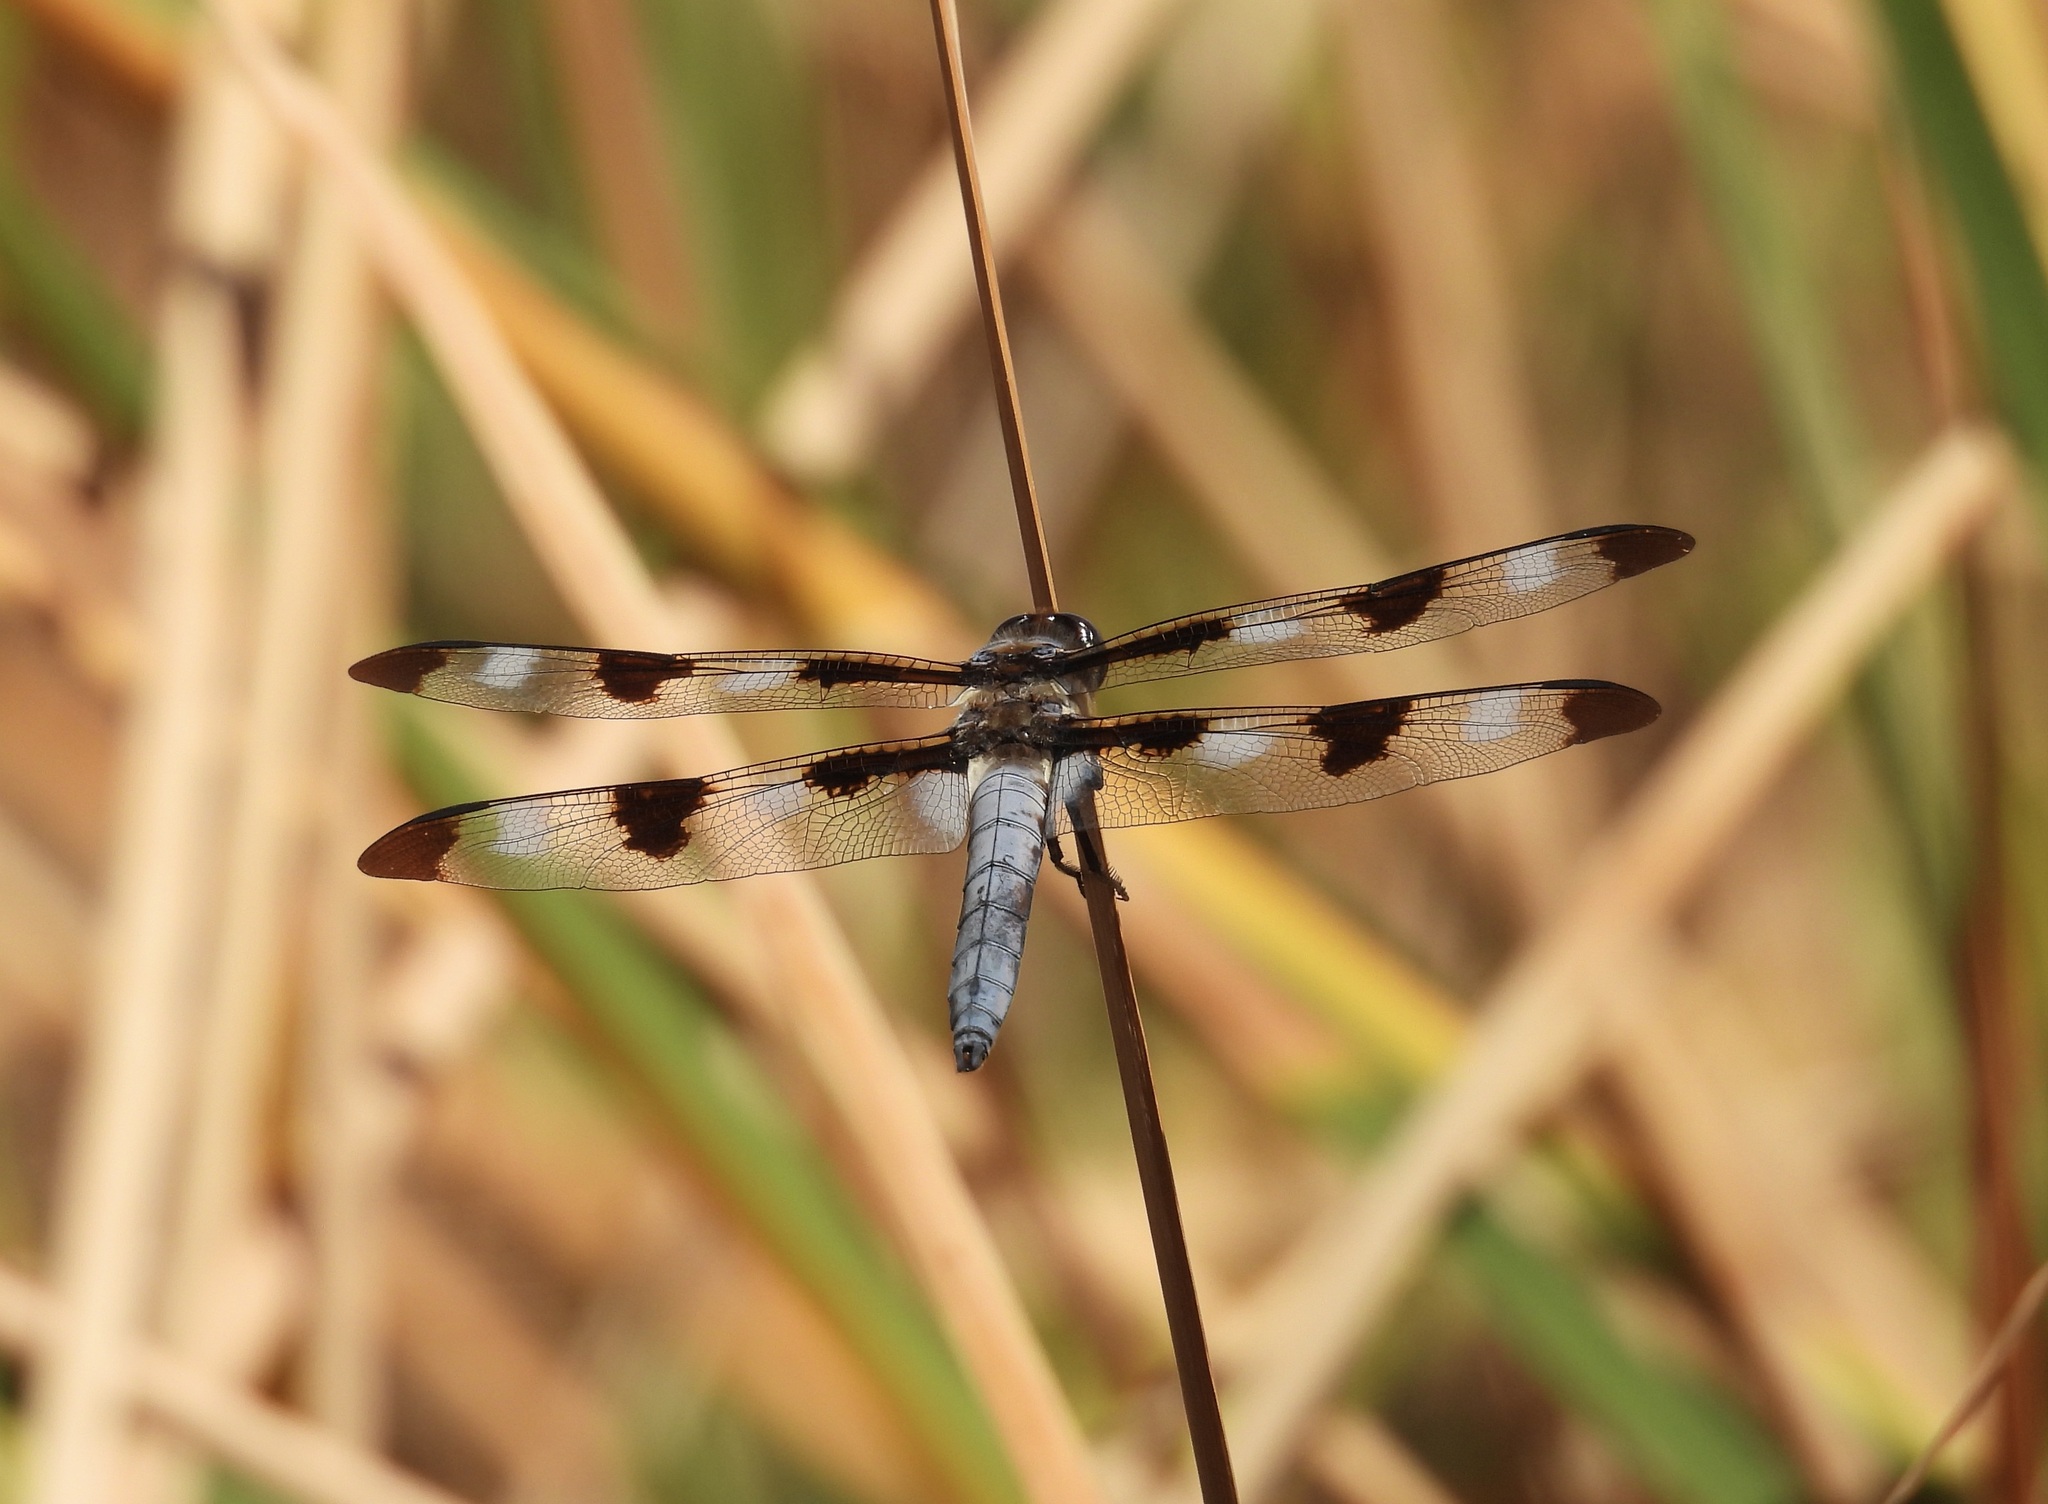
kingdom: Animalia
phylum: Arthropoda
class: Insecta
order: Odonata
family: Libellulidae
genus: Libellula
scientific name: Libellula pulchella
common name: Twelve-spotted skimmer
